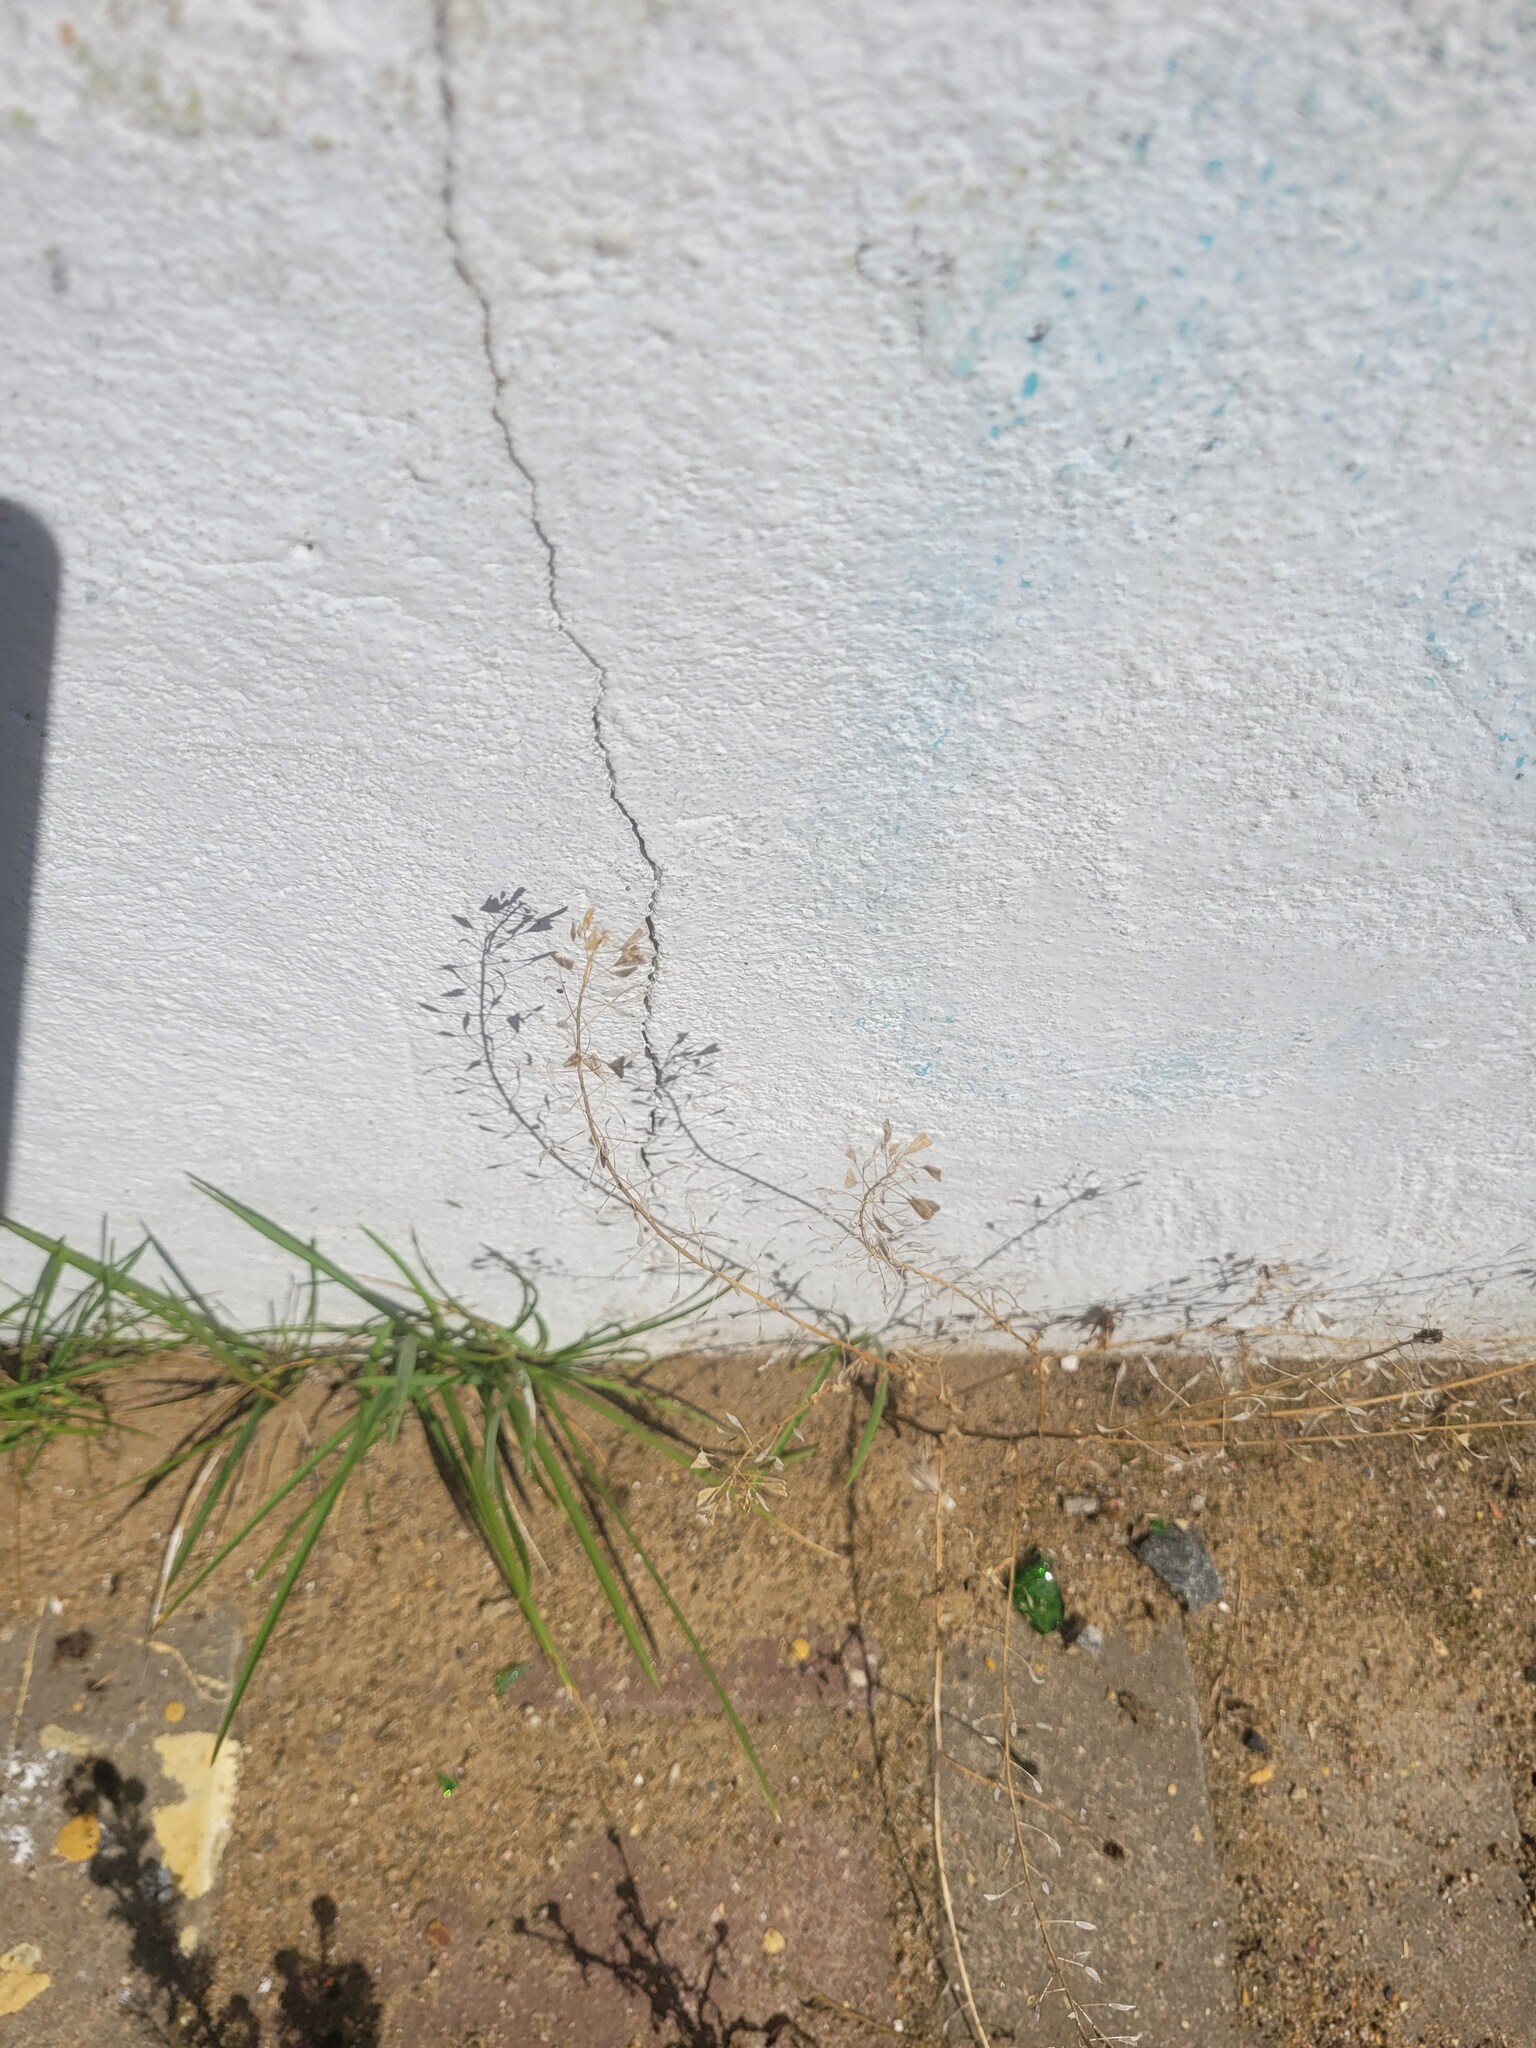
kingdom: Plantae
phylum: Tracheophyta
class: Magnoliopsida
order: Brassicales
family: Brassicaceae
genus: Capsella
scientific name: Capsella bursa-pastoris
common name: Shepherd's purse
